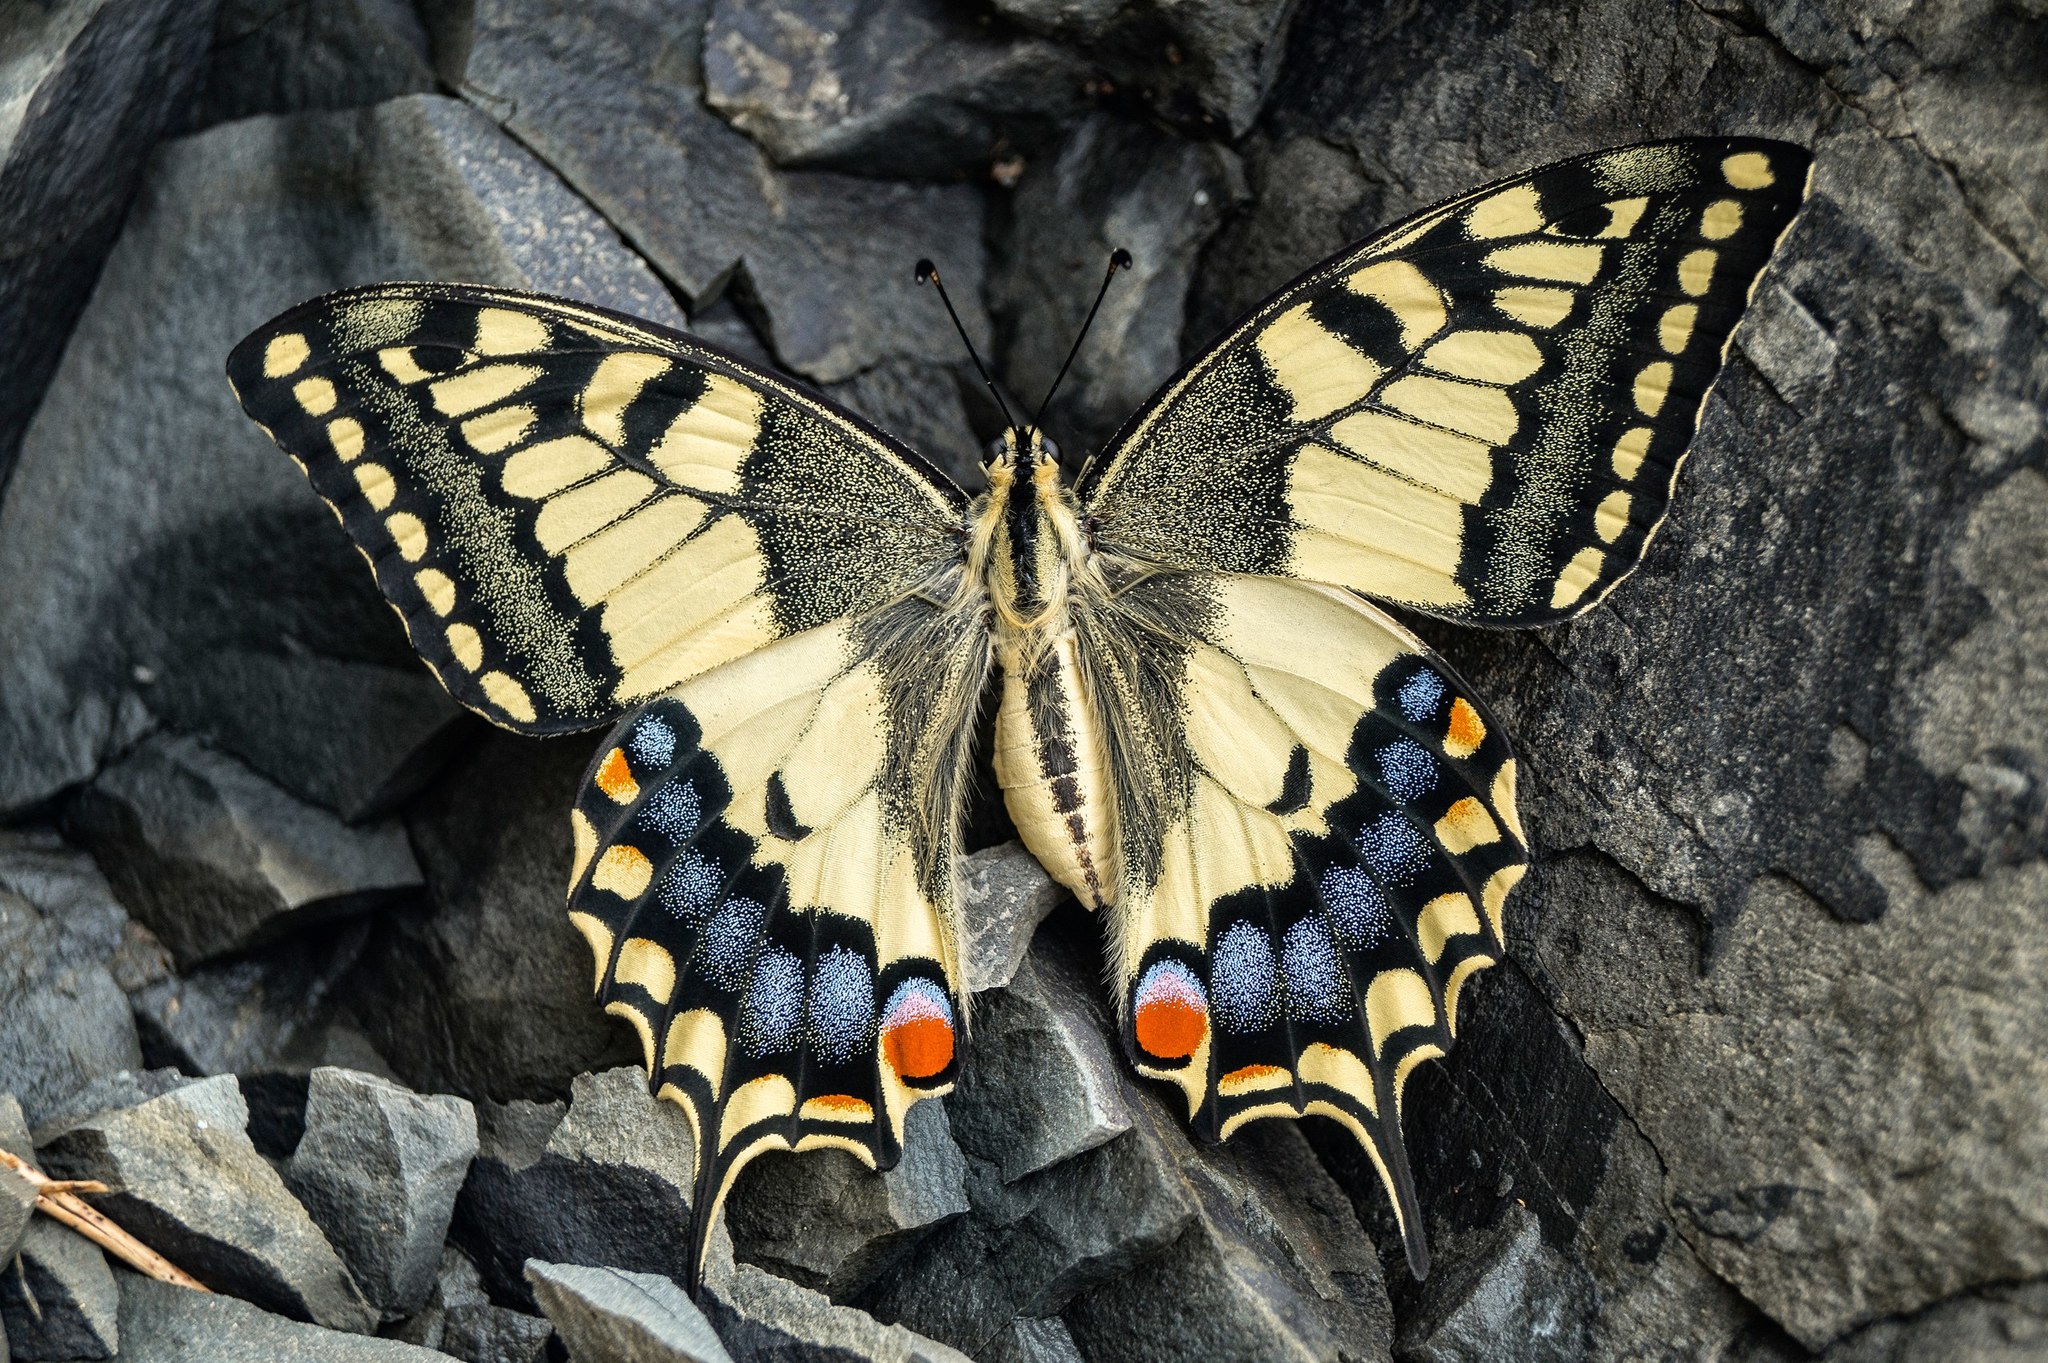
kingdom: Animalia
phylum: Arthropoda
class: Insecta
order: Lepidoptera
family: Papilionidae
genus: Papilio
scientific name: Papilio machaon
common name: Swallowtail
